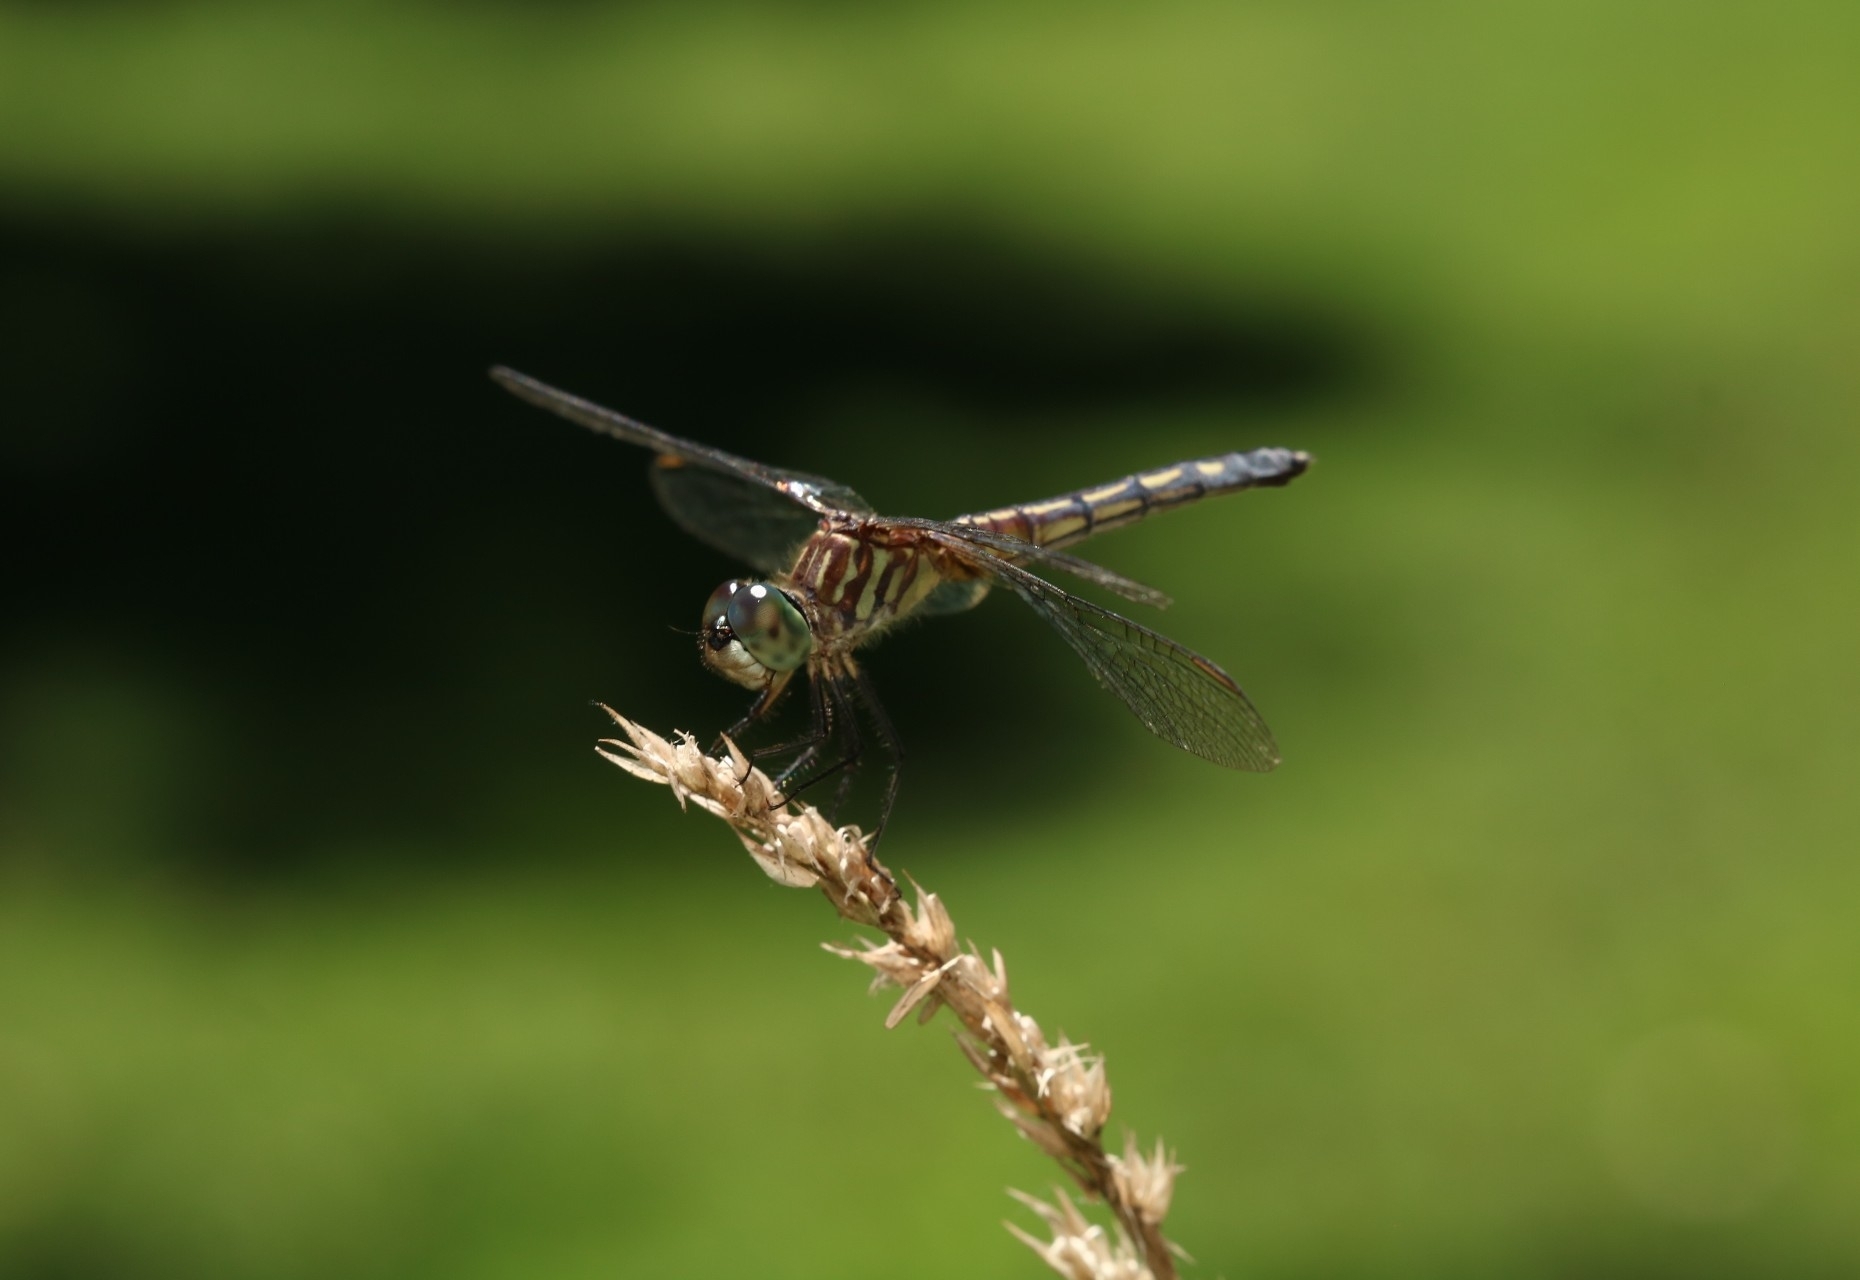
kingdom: Animalia
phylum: Arthropoda
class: Insecta
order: Odonata
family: Libellulidae
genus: Pachydiplax
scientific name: Pachydiplax longipennis
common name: Blue dasher
